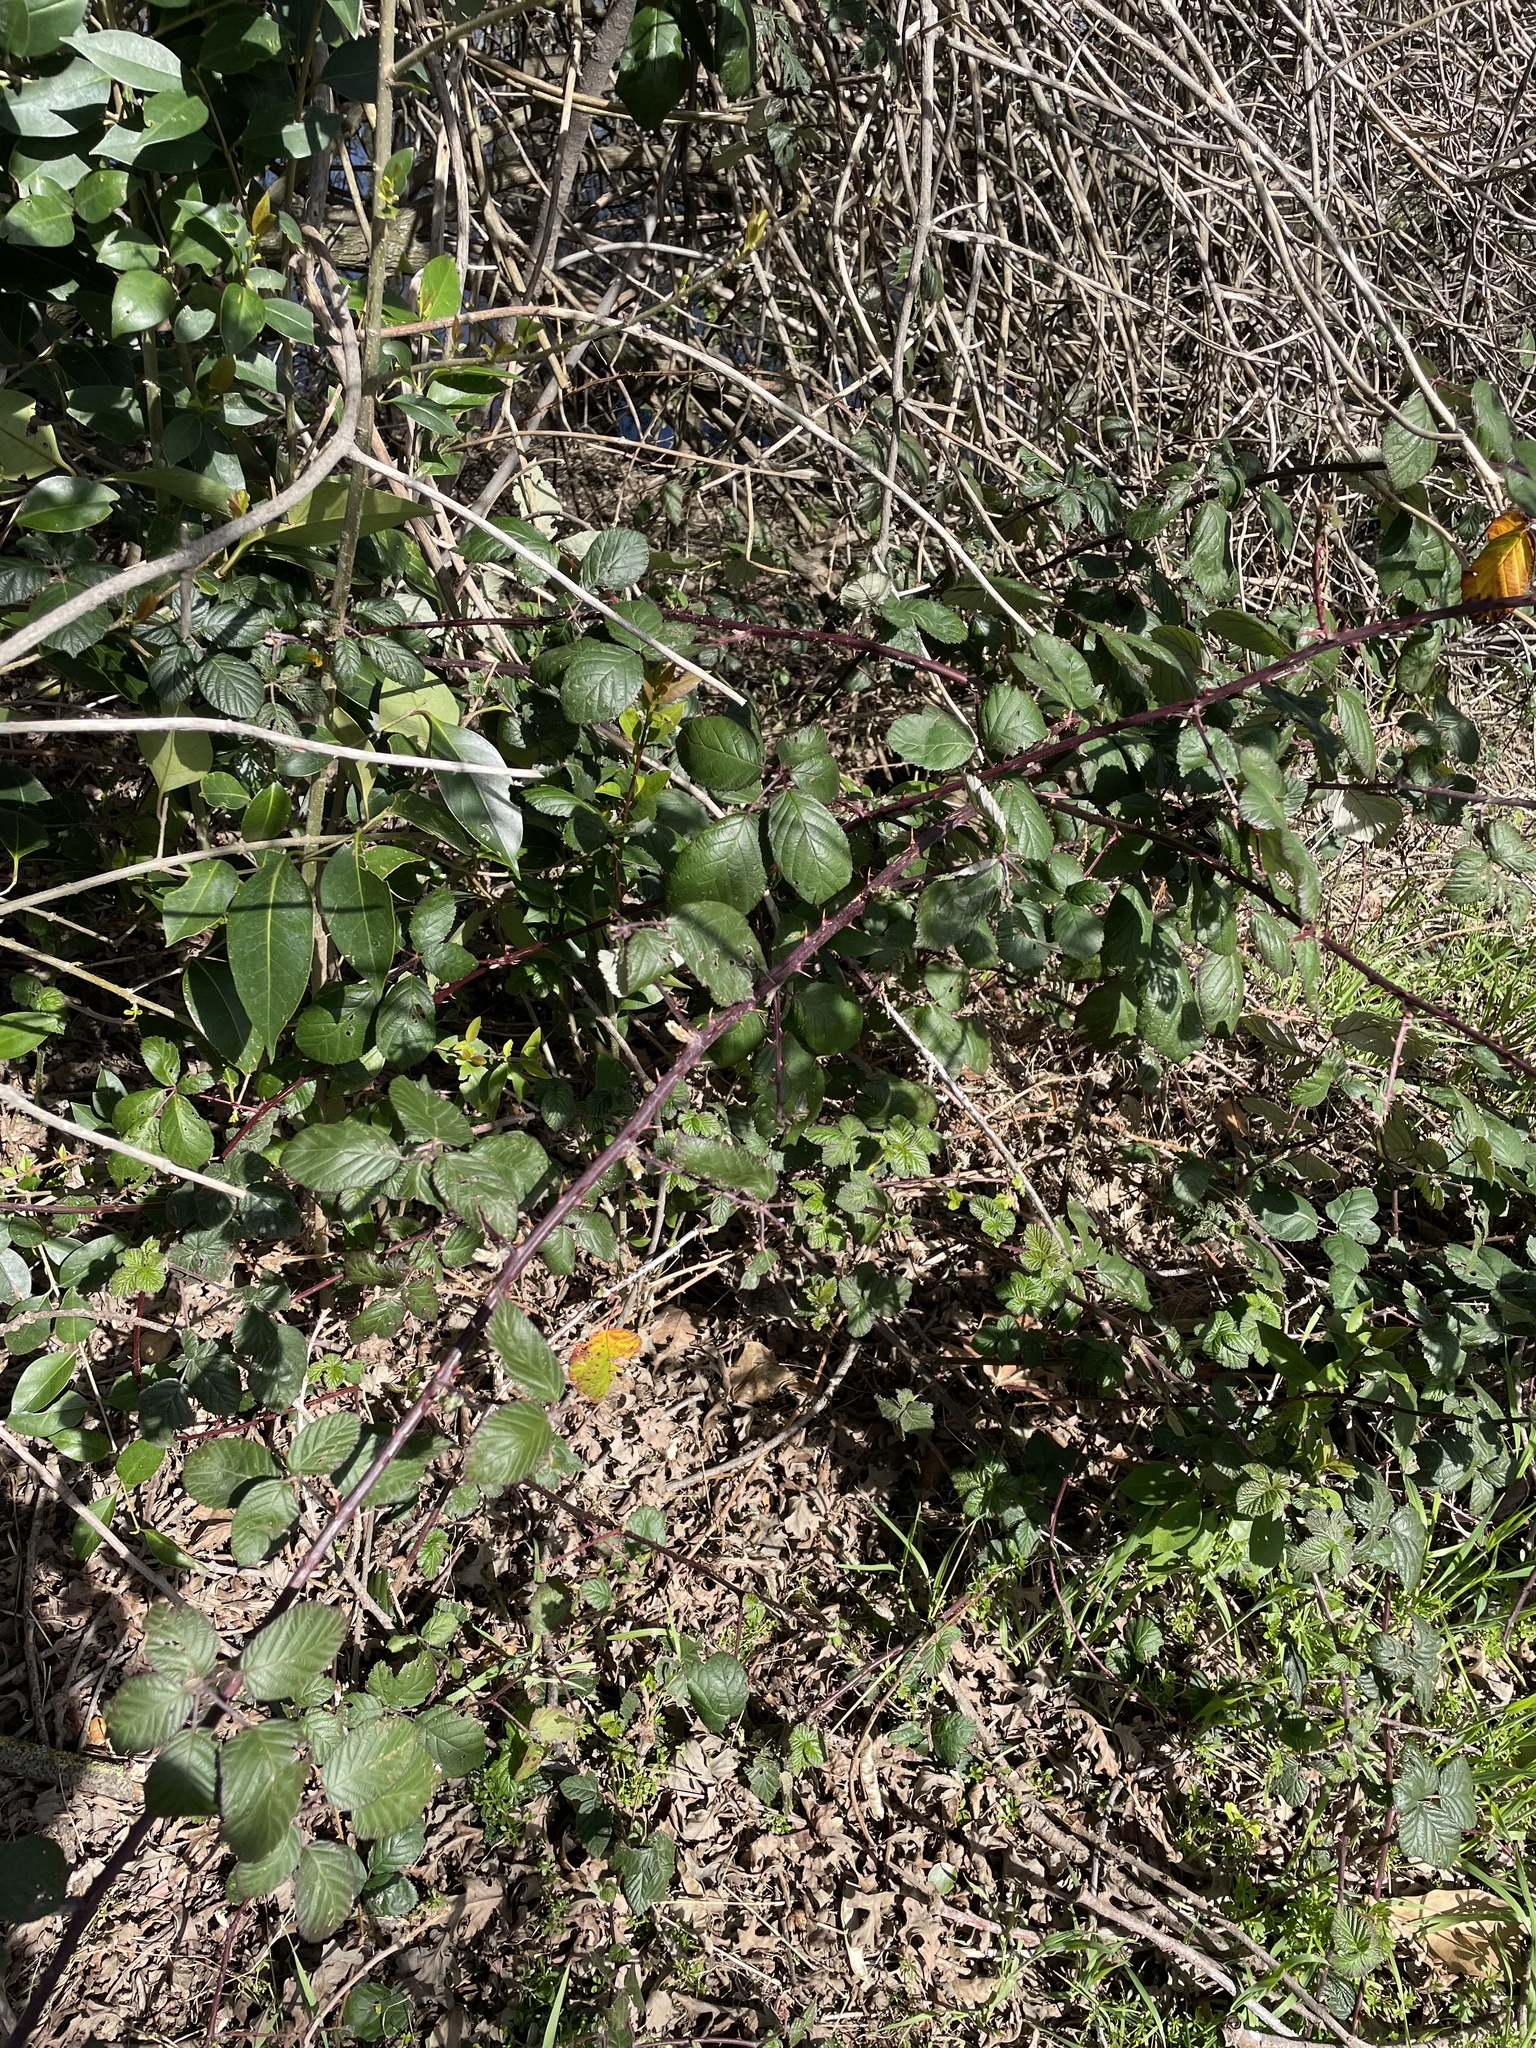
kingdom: Plantae
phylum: Tracheophyta
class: Magnoliopsida
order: Rosales
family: Rosaceae
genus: Rubus
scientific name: Rubus armeniacus
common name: Himalayan blackberry
